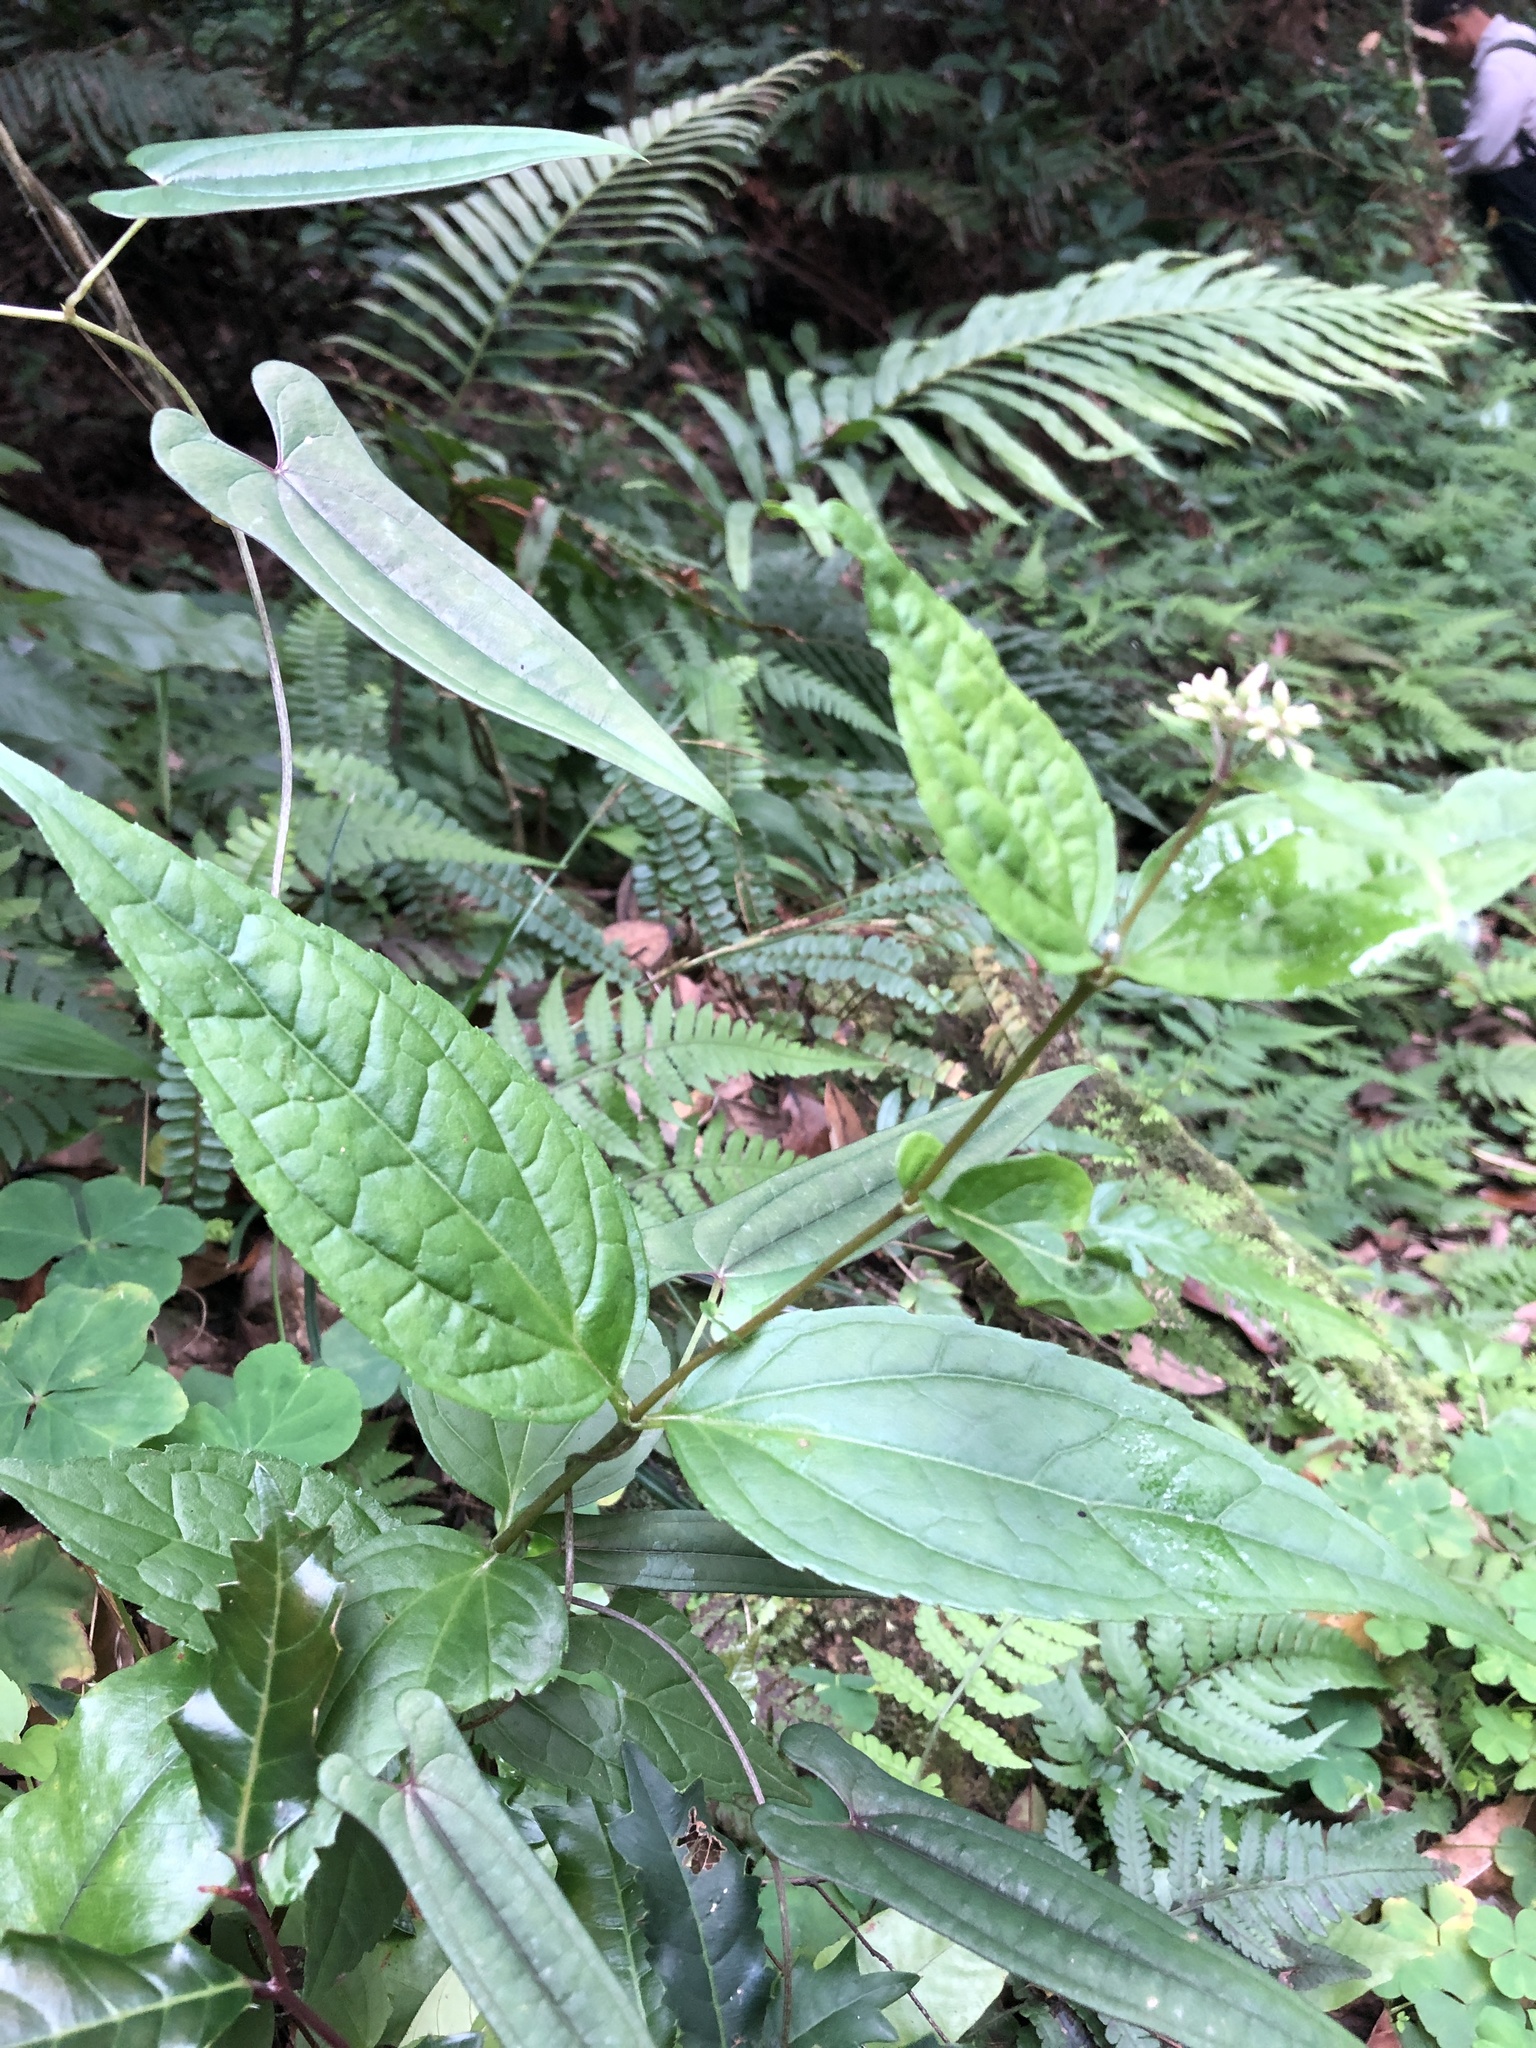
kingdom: Plantae
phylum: Tracheophyta
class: Magnoliopsida
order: Asterales
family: Asteraceae
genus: Eupatorium
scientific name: Eupatorium luchuense
